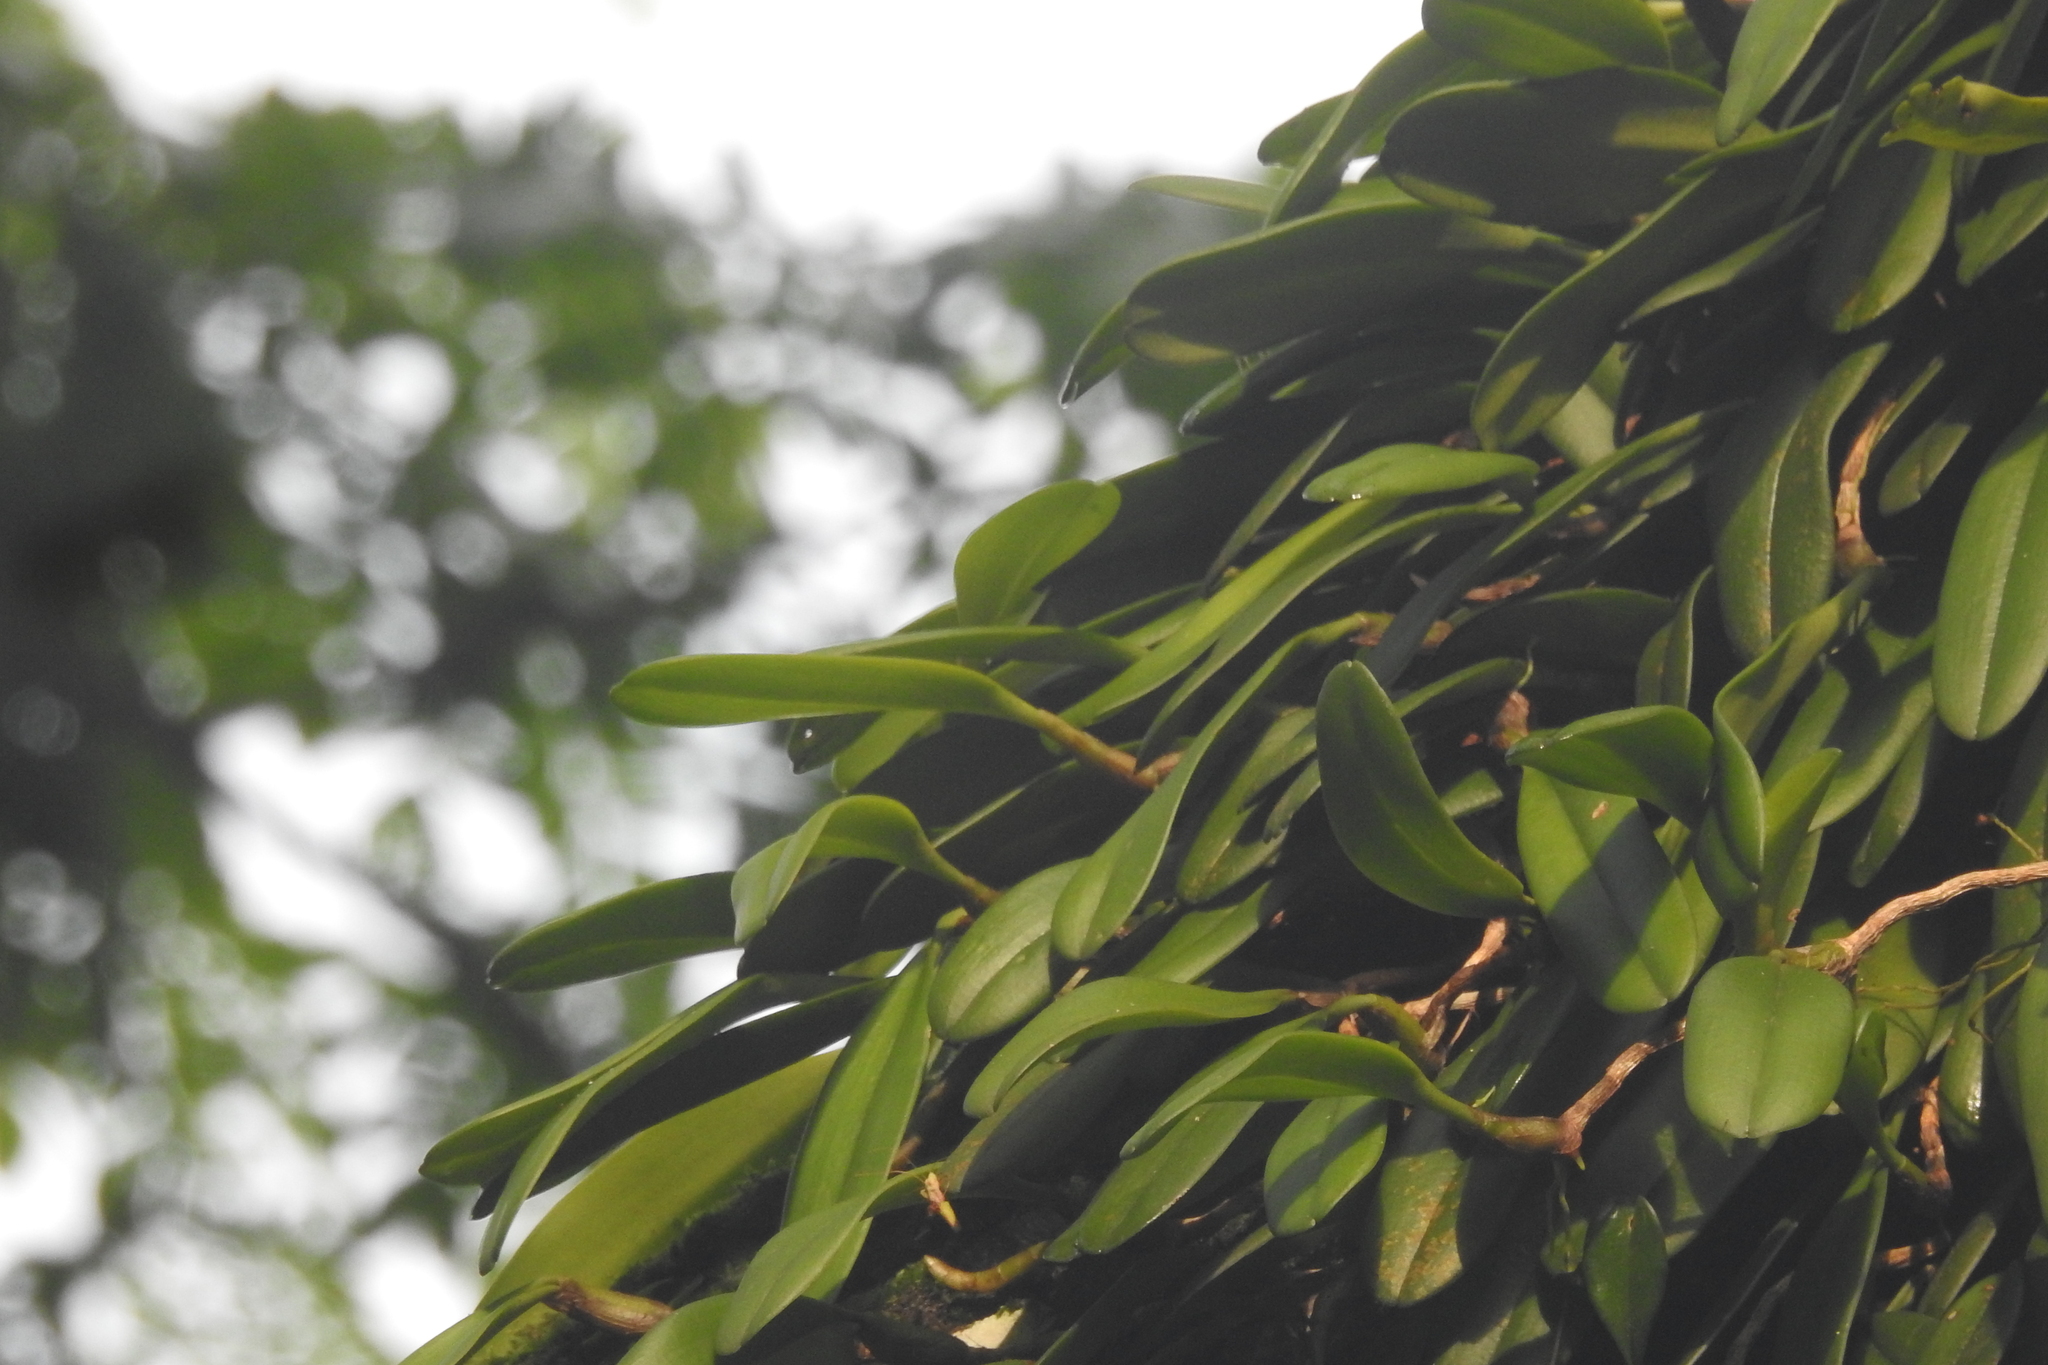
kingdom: Plantae
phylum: Tracheophyta
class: Liliopsida
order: Asparagales
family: Orchidaceae
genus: Bulbophyllum
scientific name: Bulbophyllum vaginatum
